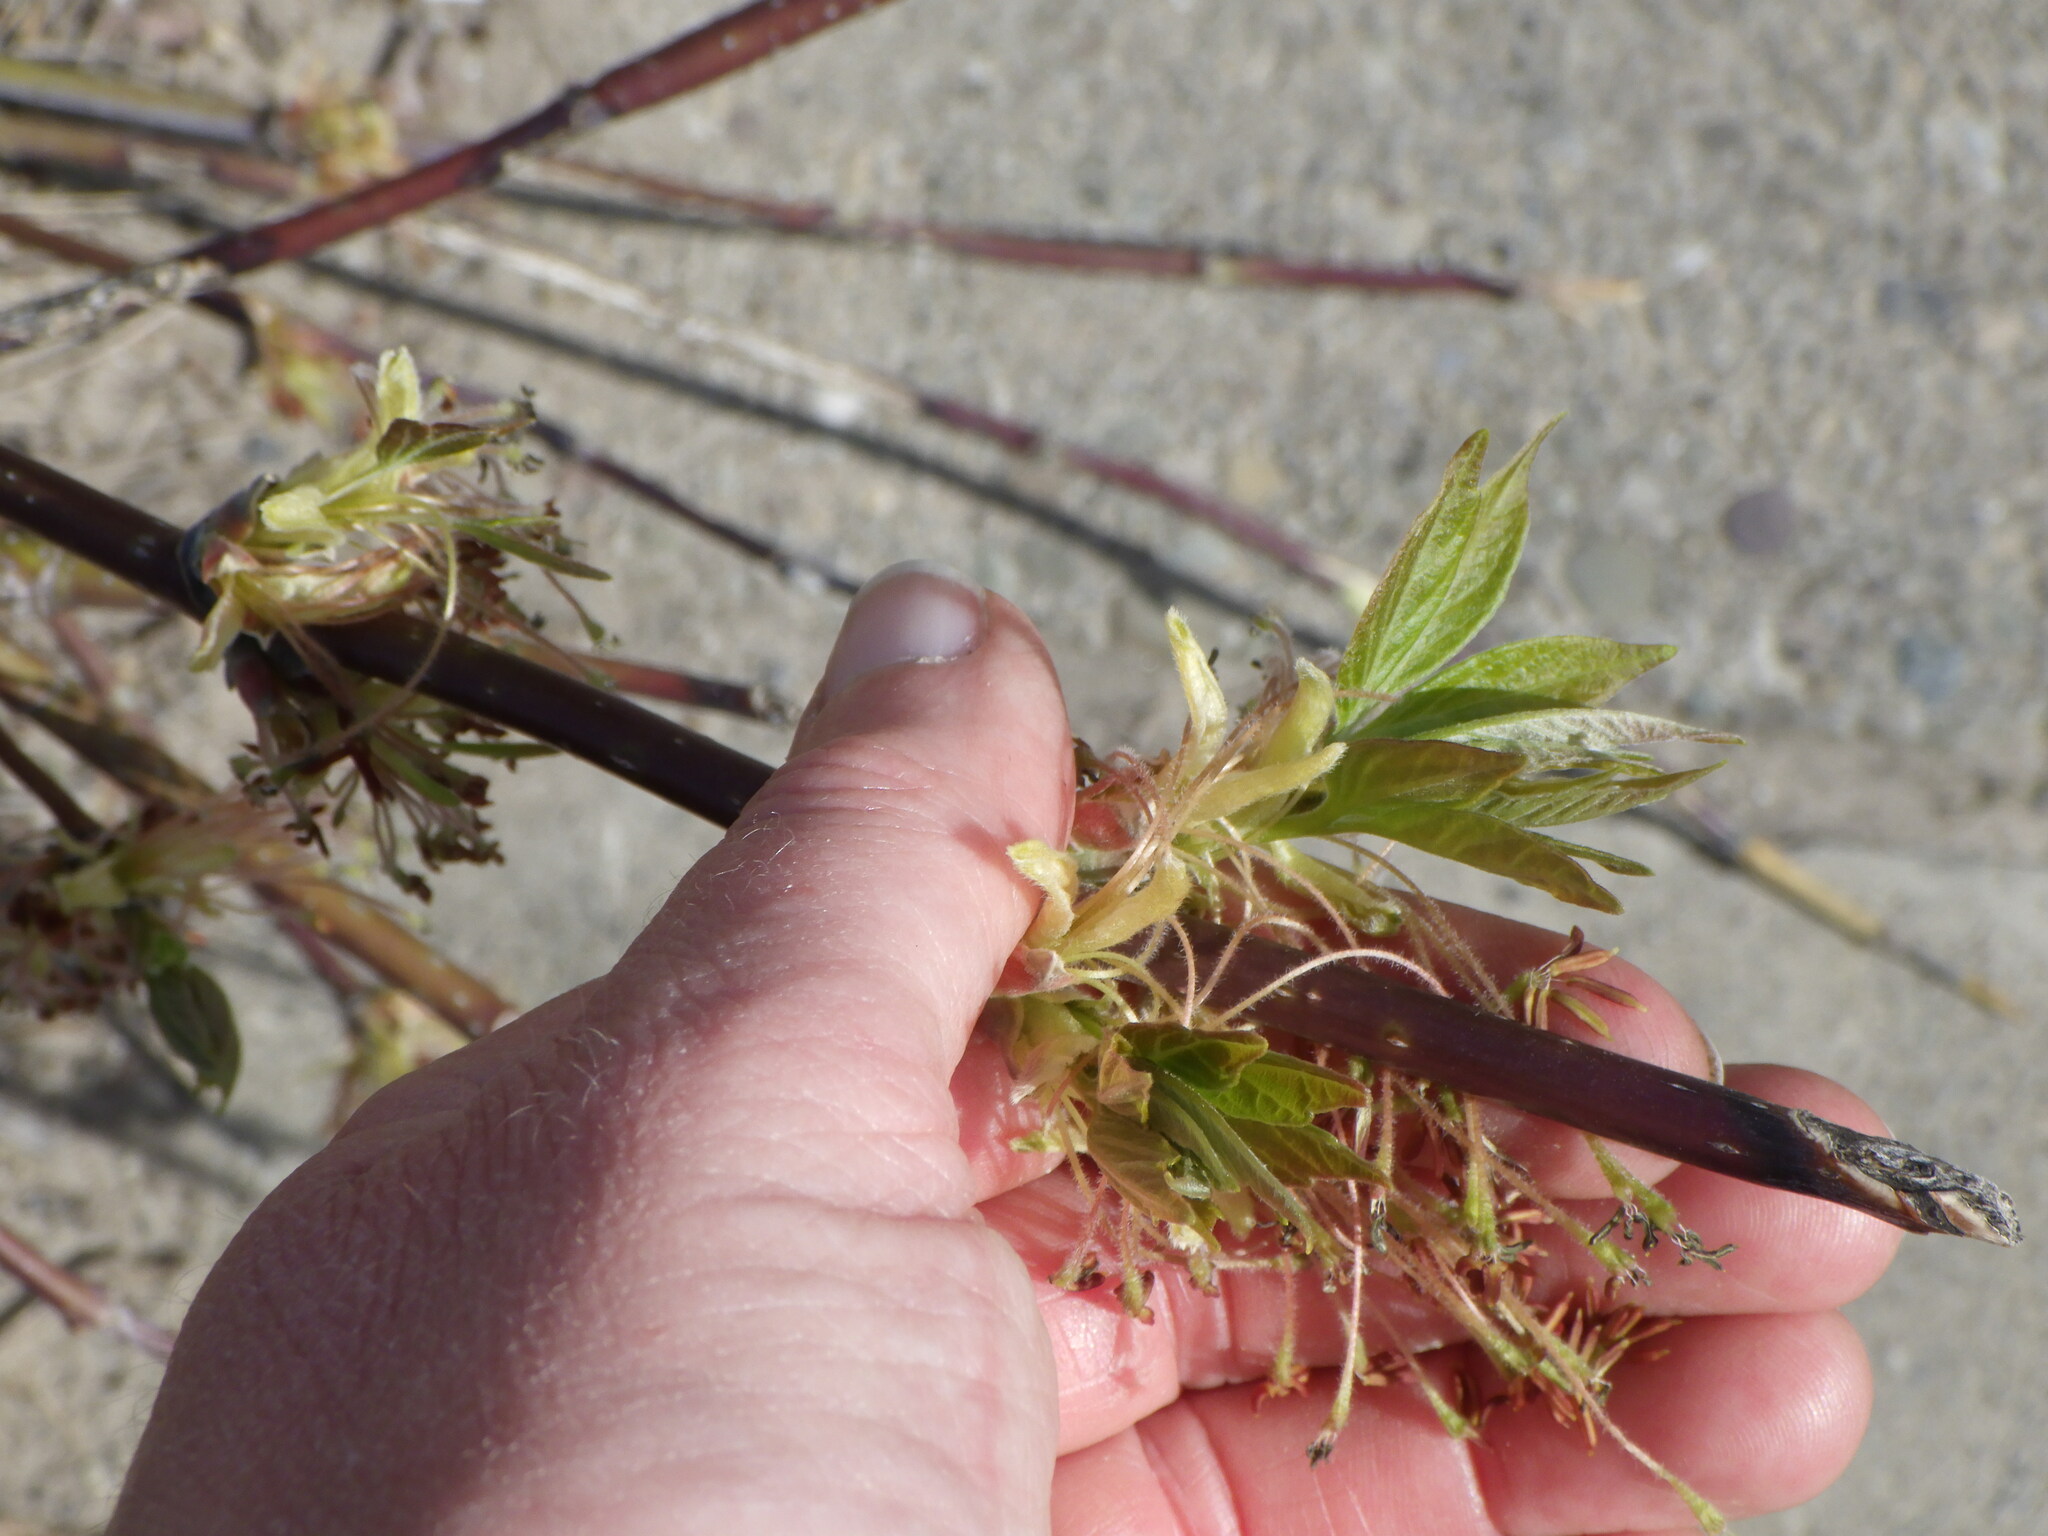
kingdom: Plantae
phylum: Tracheophyta
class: Magnoliopsida
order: Sapindales
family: Sapindaceae
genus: Acer
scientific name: Acer negundo
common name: Ashleaf maple
